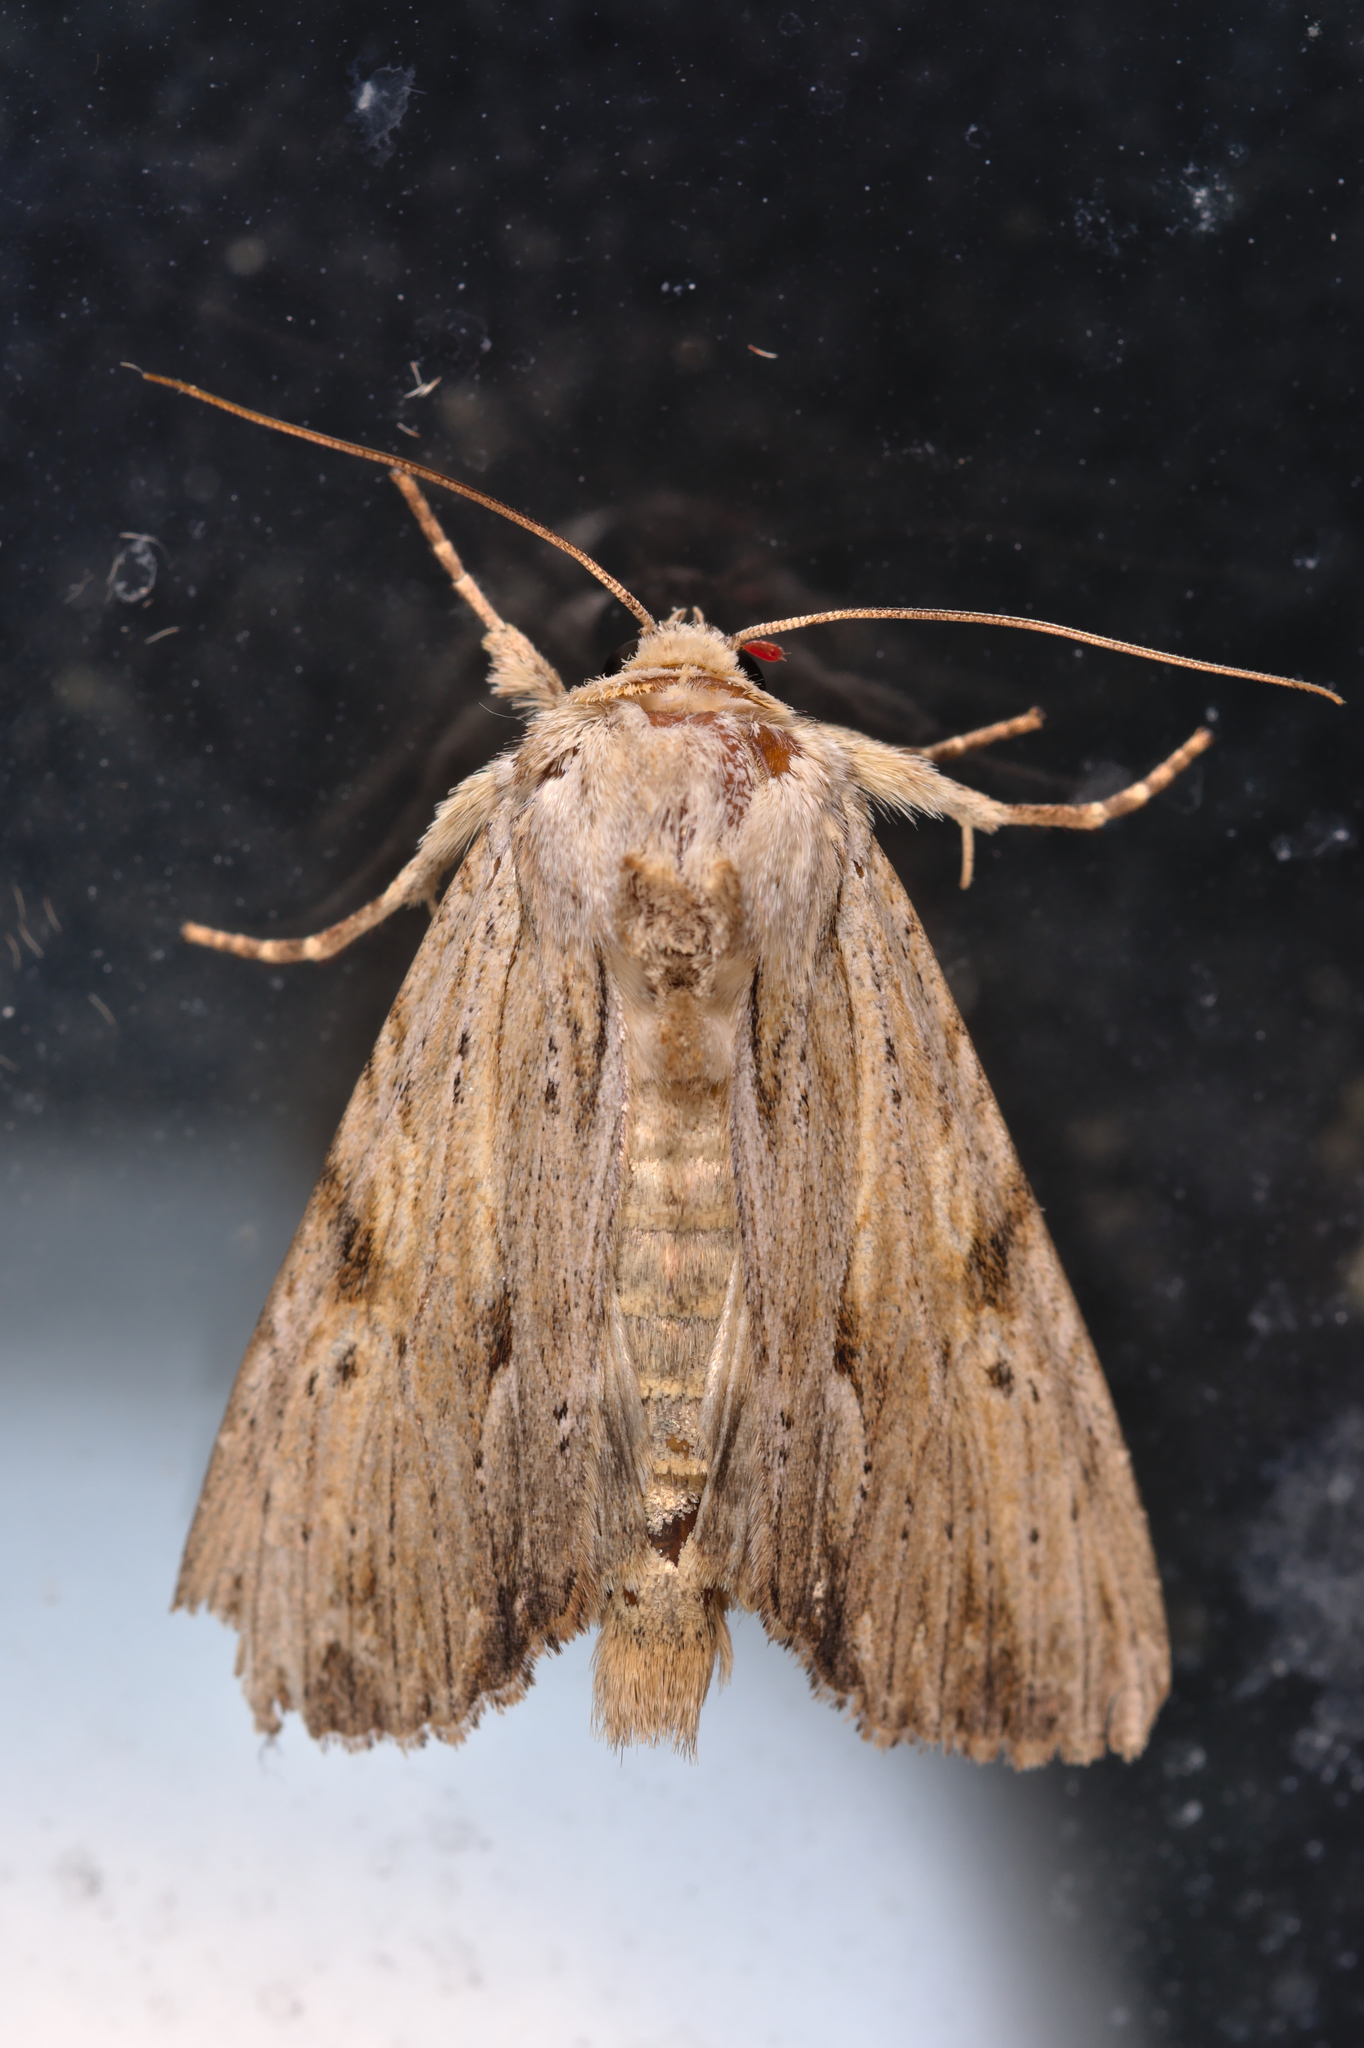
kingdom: Animalia
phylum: Arthropoda
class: Insecta
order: Lepidoptera
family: Noctuidae
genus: Apamea
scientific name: Apamea lithoxylaea
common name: Light arches
